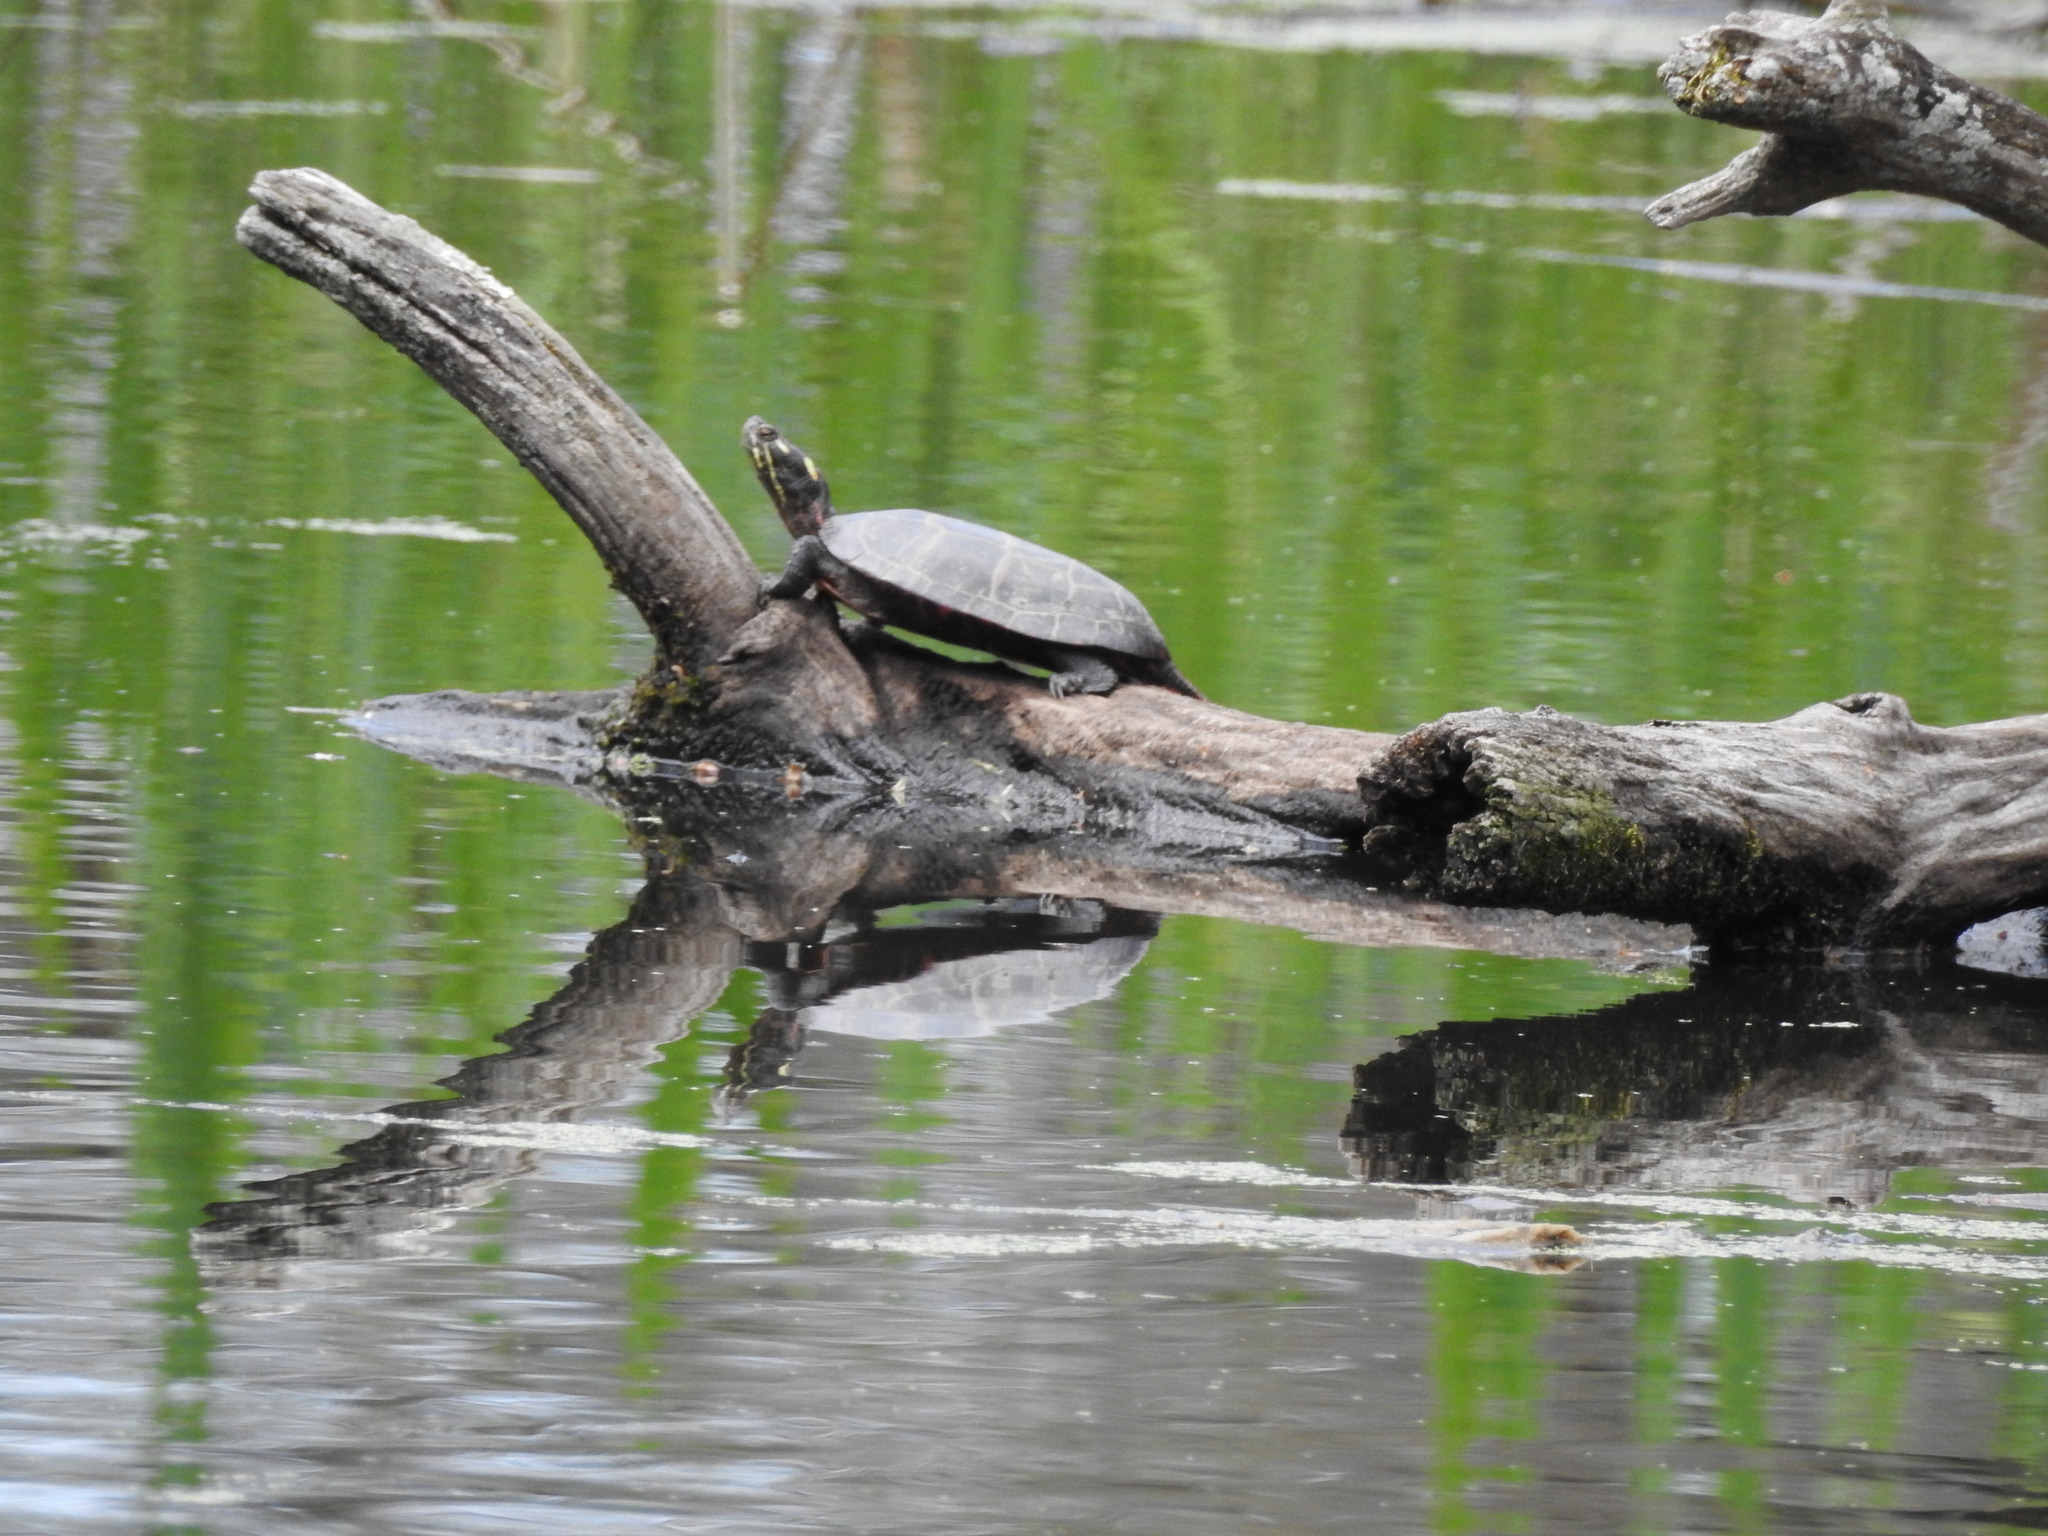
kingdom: Animalia
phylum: Chordata
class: Testudines
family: Emydidae
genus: Chrysemys
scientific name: Chrysemys picta
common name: Painted turtle
